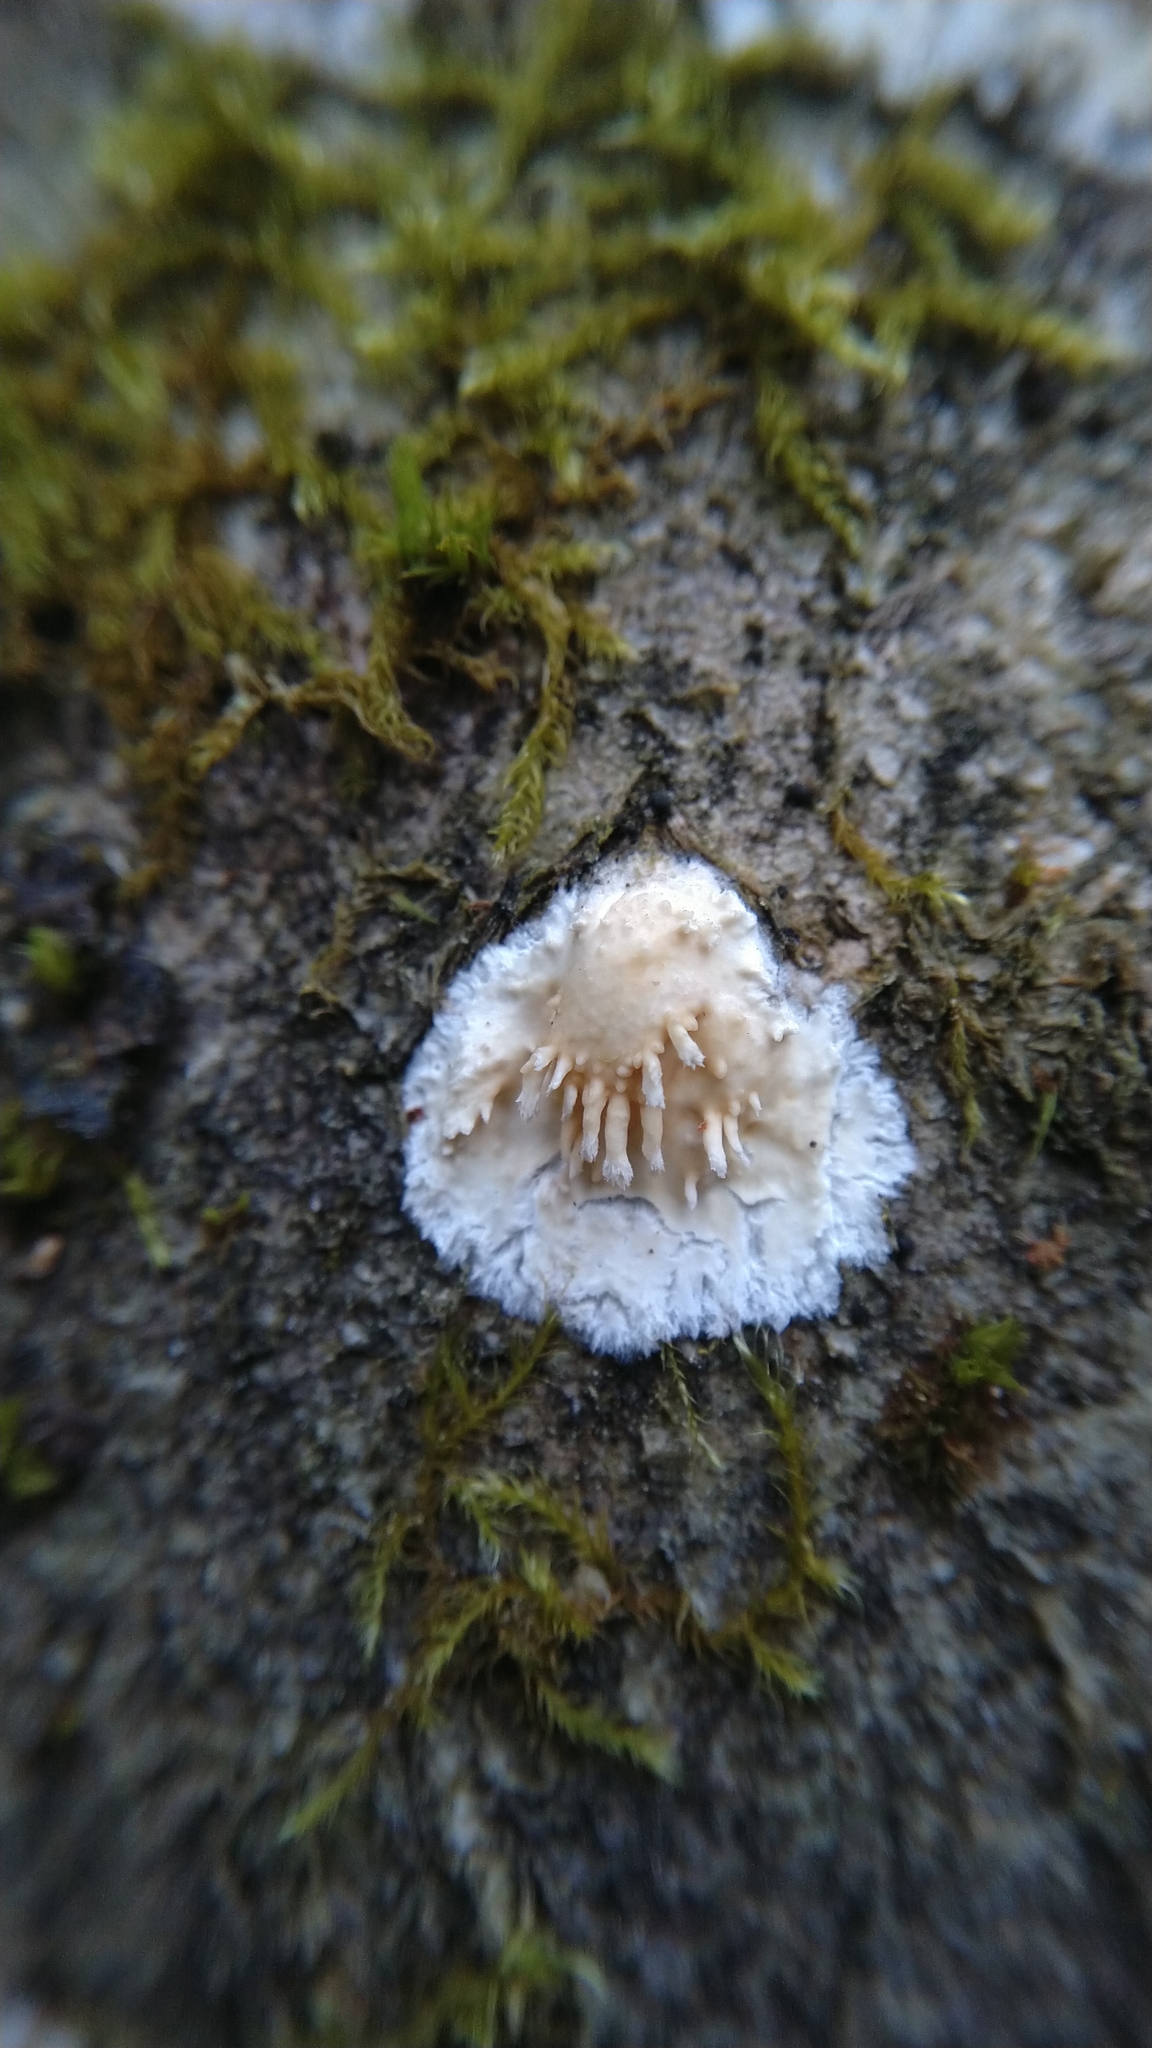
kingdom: Fungi
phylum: Basidiomycota
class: Agaricomycetes
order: Hymenochaetales
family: Schizoporaceae
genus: Xylodon
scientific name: Xylodon radula
